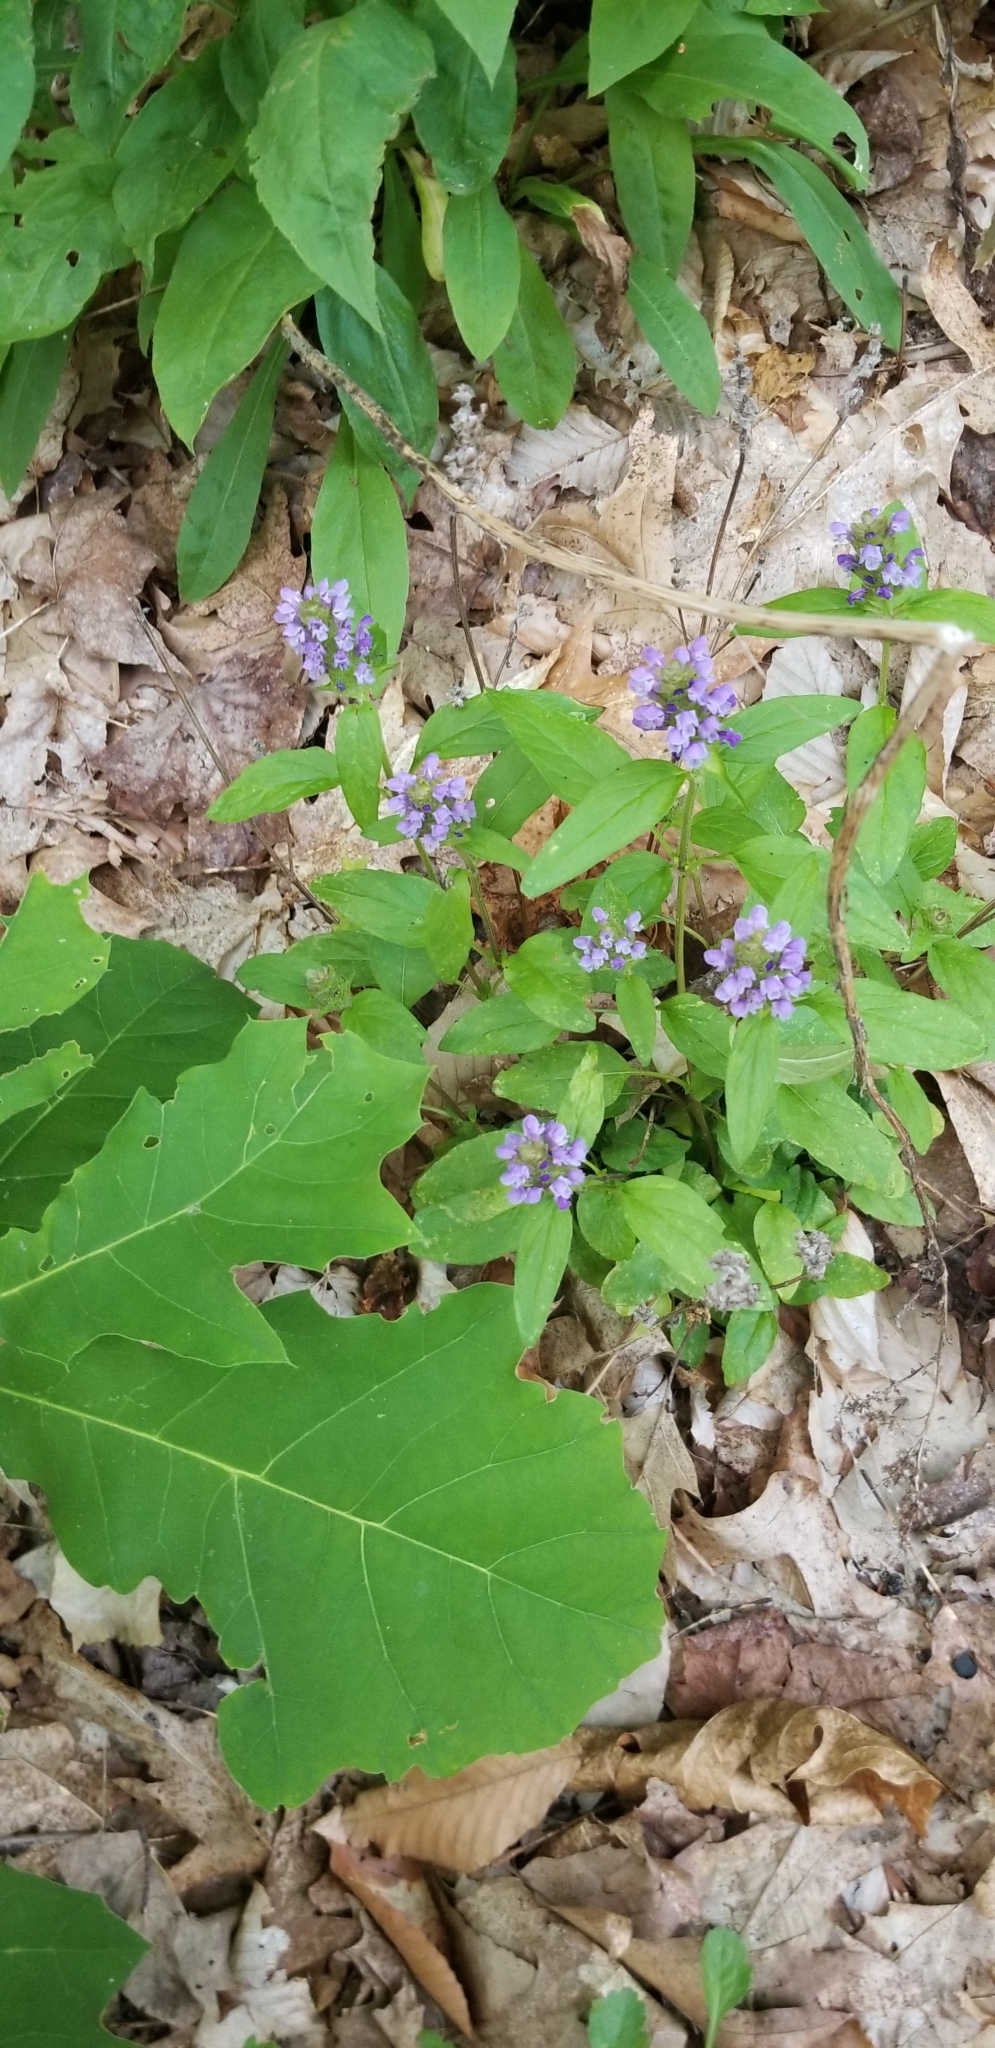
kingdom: Plantae
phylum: Tracheophyta
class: Magnoliopsida
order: Lamiales
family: Lamiaceae
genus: Prunella
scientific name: Prunella vulgaris
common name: Heal-all
